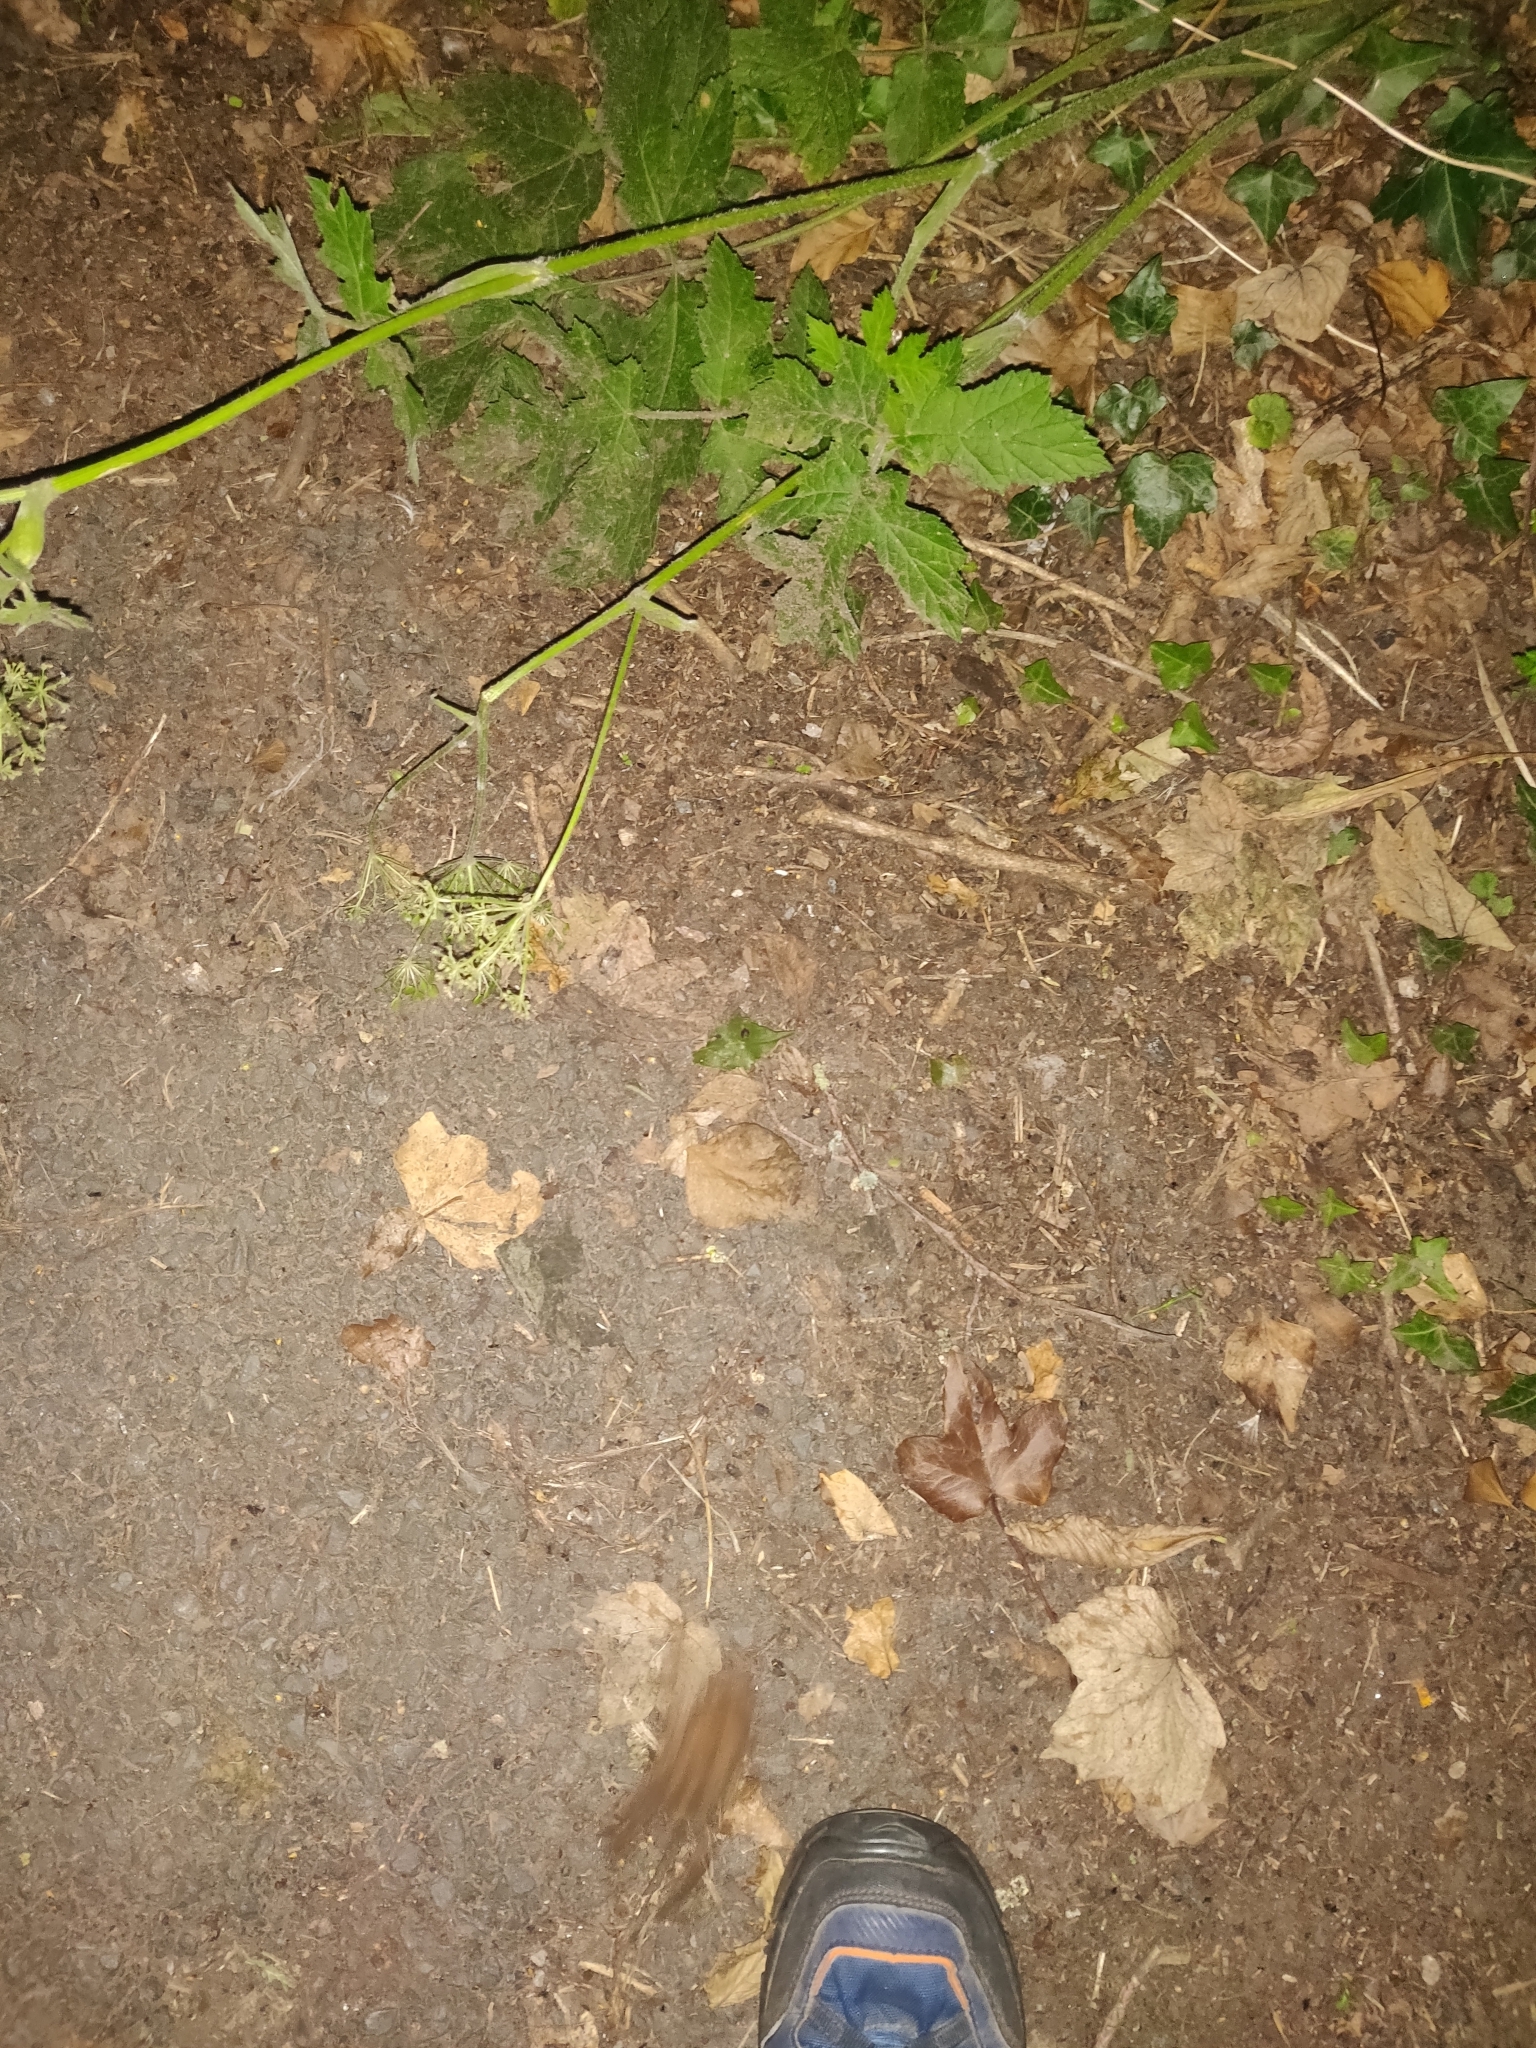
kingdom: Animalia
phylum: Chordata
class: Amphibia
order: Anura
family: Bufonidae
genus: Bufo
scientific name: Bufo bufo
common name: Common toad
